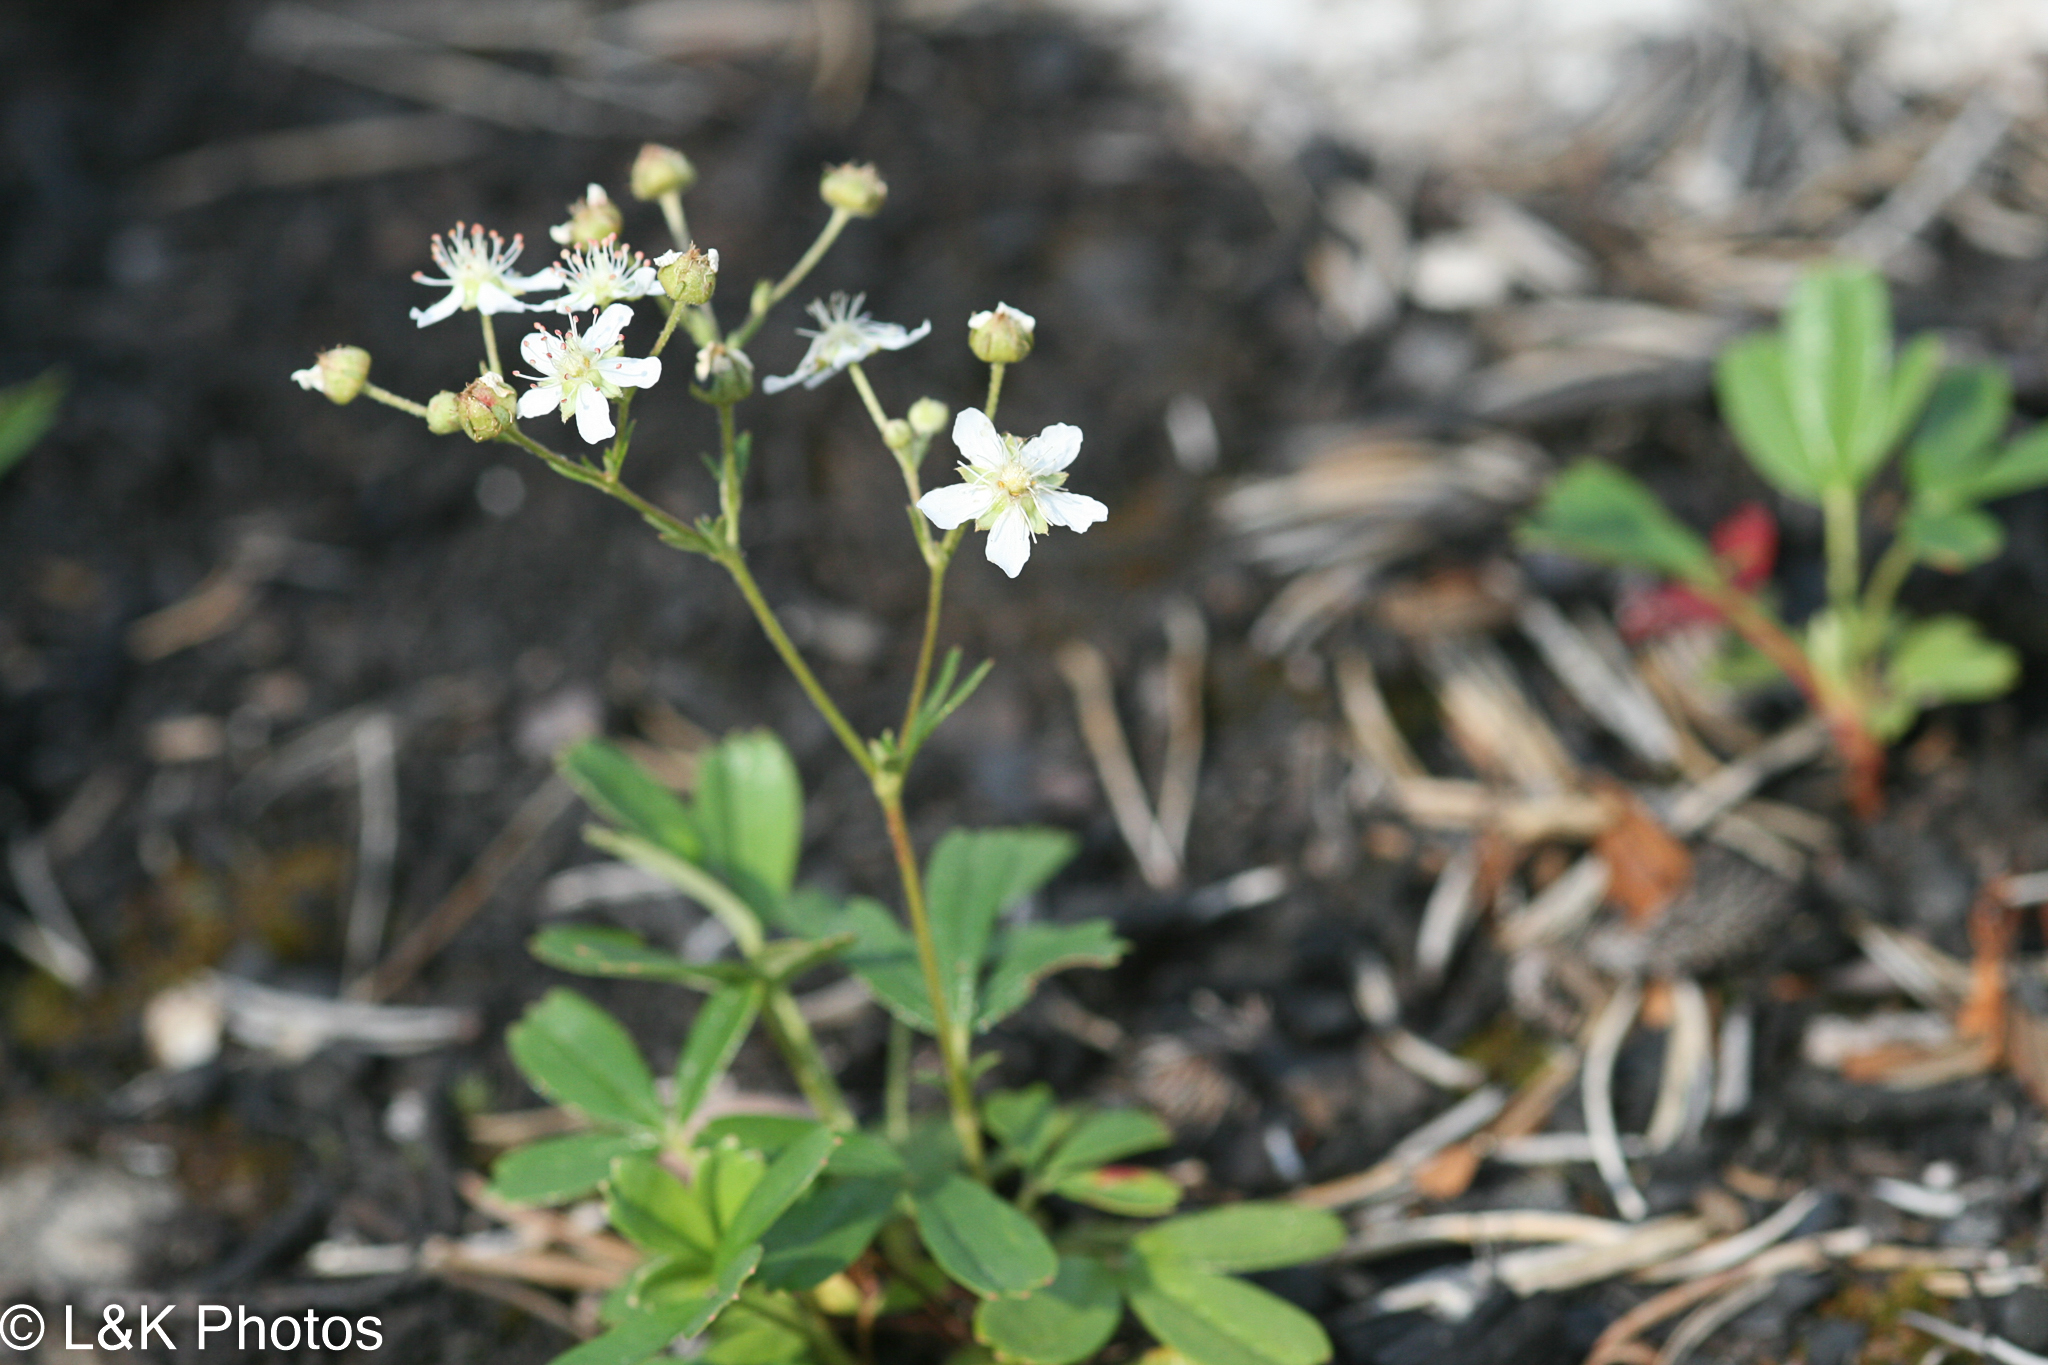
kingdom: Plantae
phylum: Tracheophyta
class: Magnoliopsida
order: Rosales
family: Rosaceae
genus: Sibbaldia
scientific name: Sibbaldia tridentata
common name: Three-toothed cinquefoil
